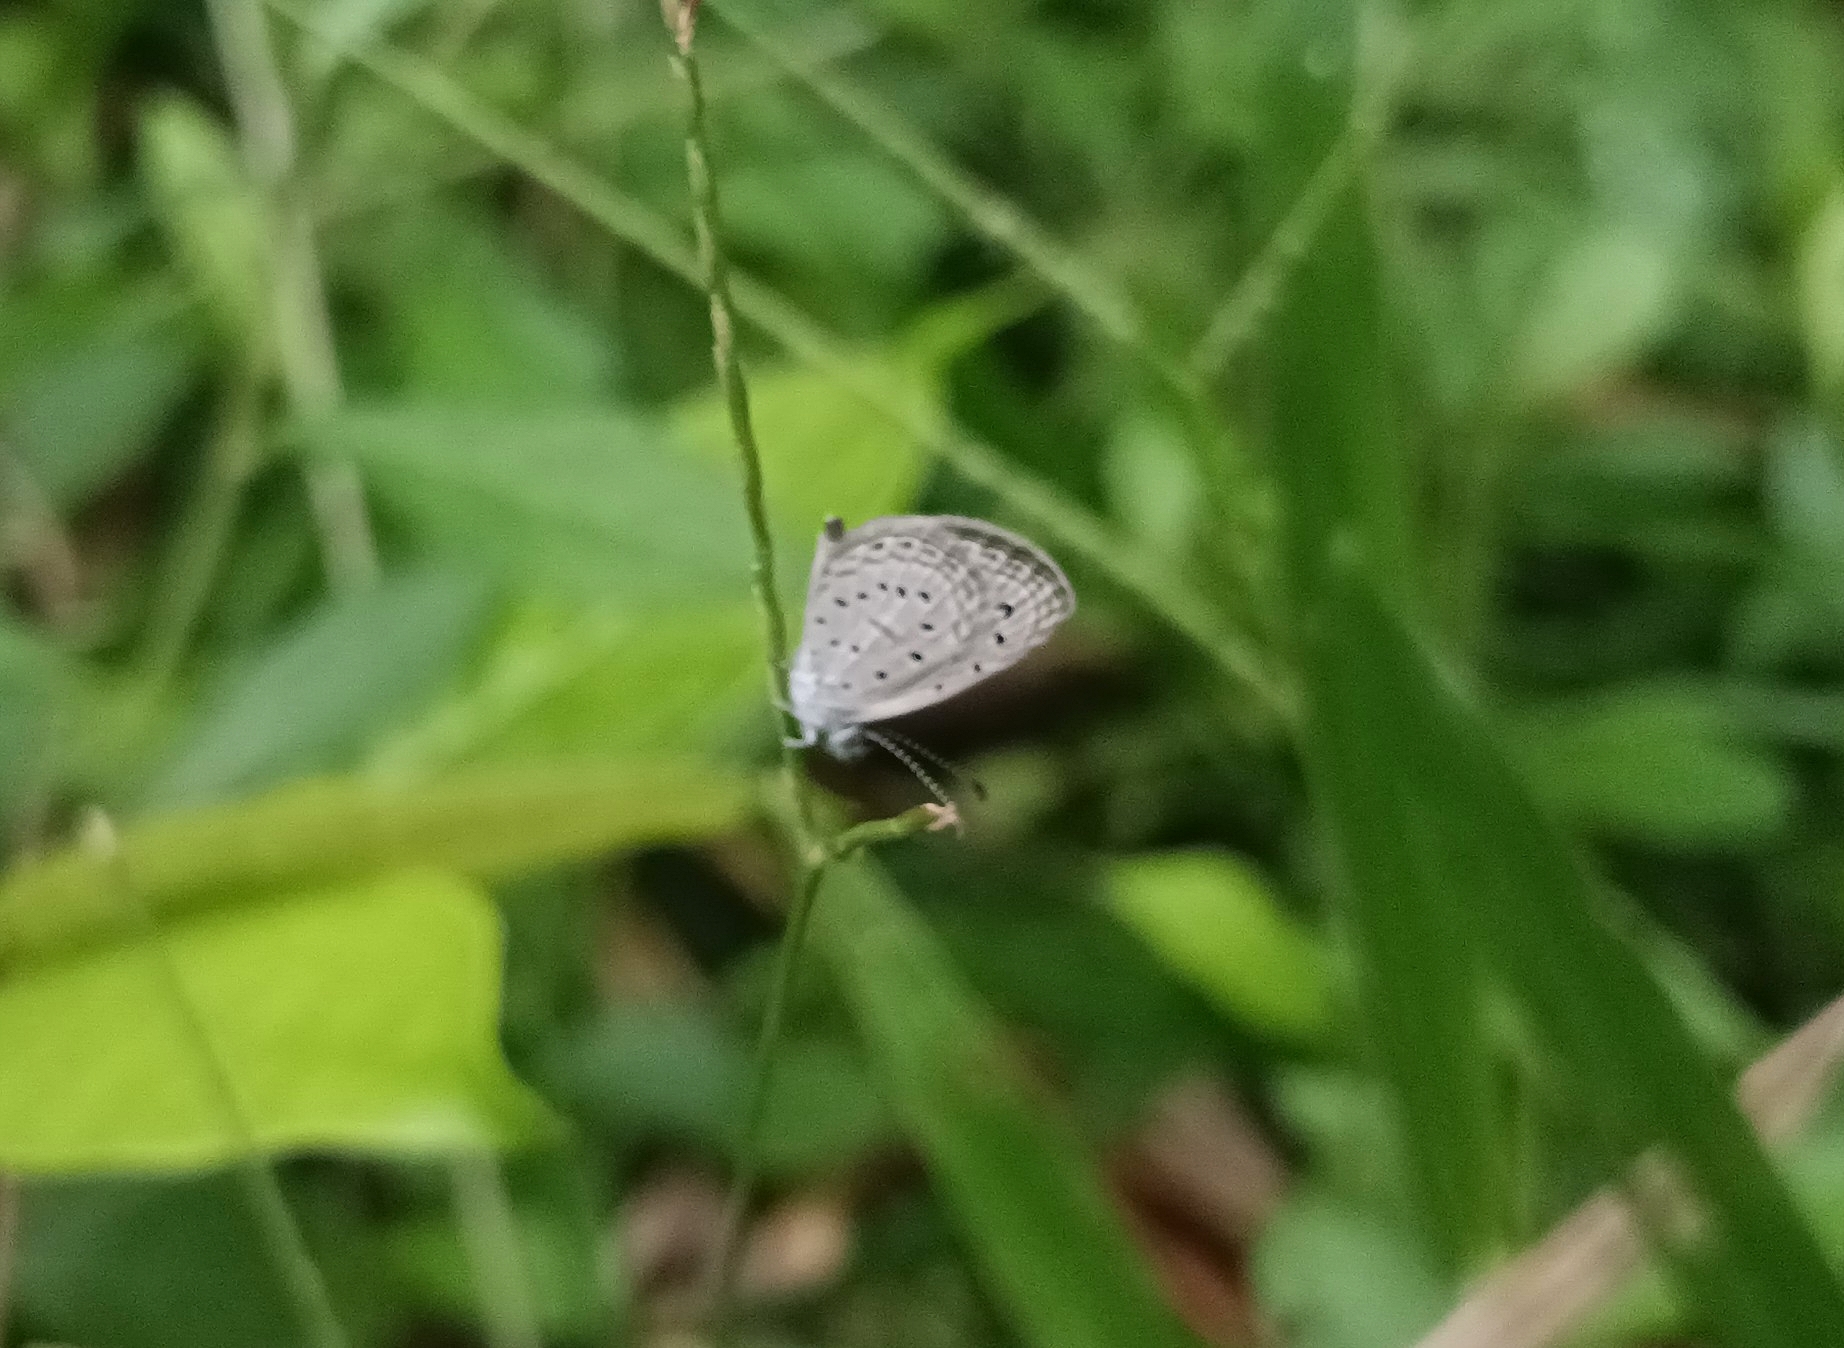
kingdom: Animalia
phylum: Arthropoda
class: Insecta
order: Lepidoptera
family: Lycaenidae
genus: Zizula
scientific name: Zizula hylax
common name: Gaika blue
